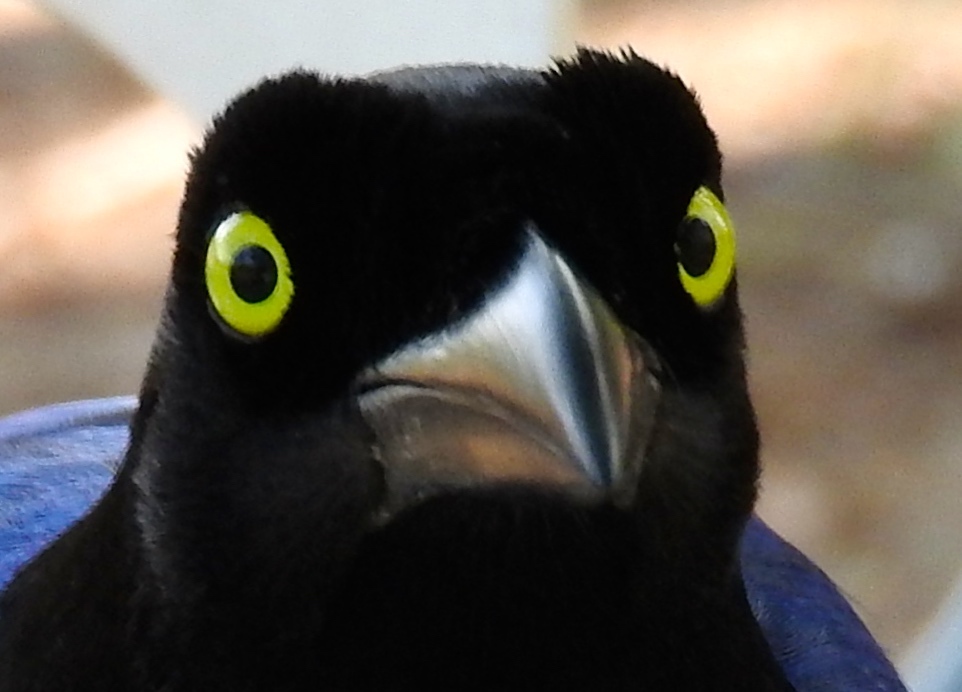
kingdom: Animalia
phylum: Chordata
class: Aves
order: Passeriformes
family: Corvidae
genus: Cyanocorax
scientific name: Cyanocorax beecheii
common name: Purplish-backed jay
